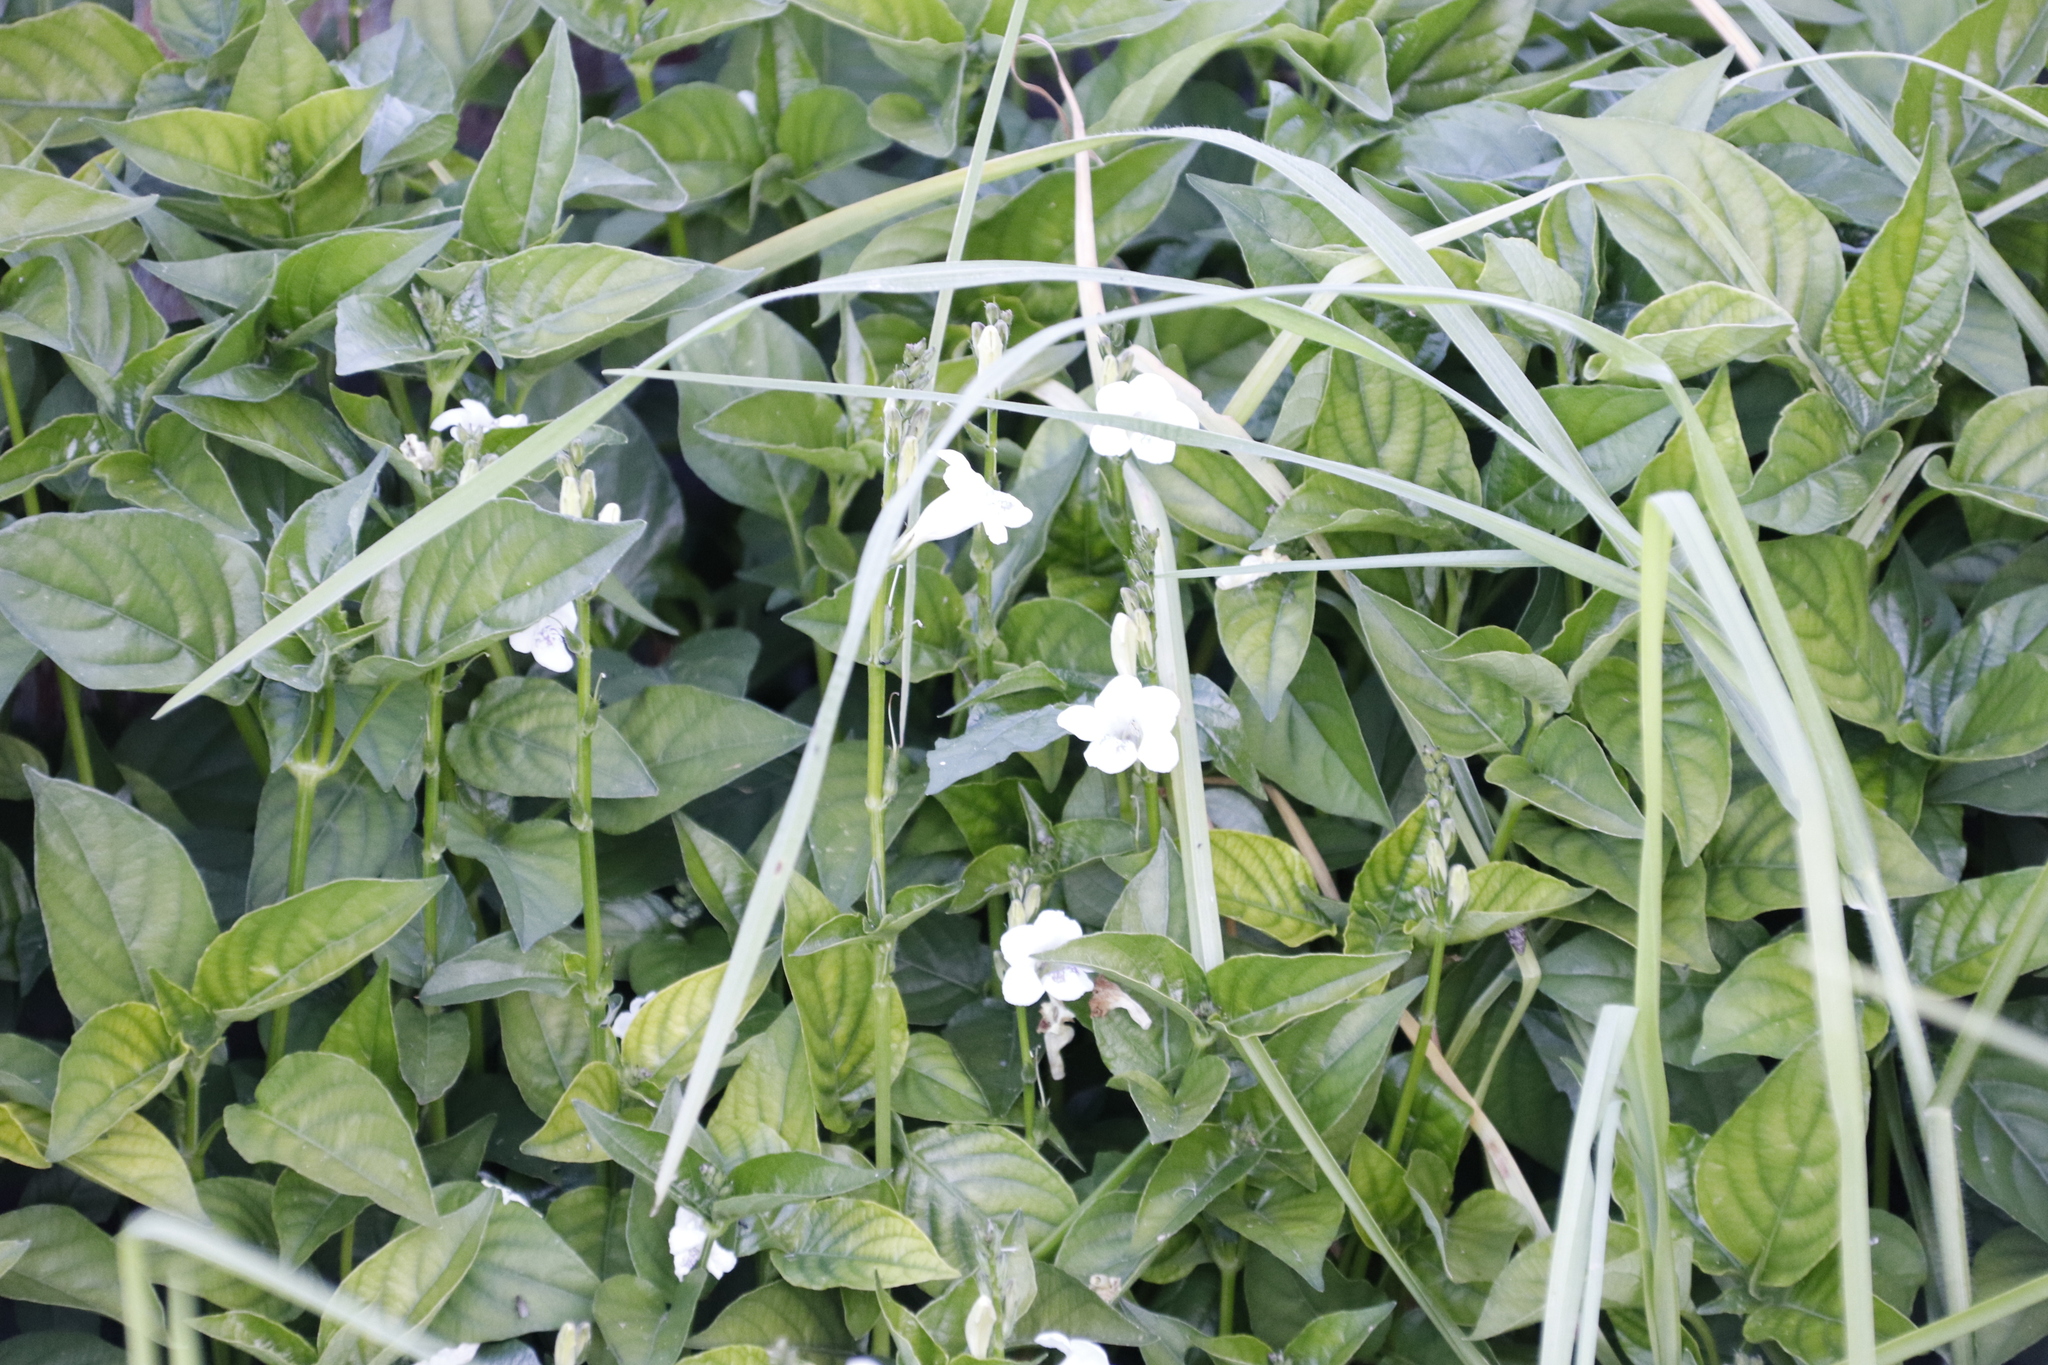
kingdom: Plantae
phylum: Tracheophyta
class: Magnoliopsida
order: Lamiales
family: Acanthaceae
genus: Asystasia
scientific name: Asystasia intrusa
